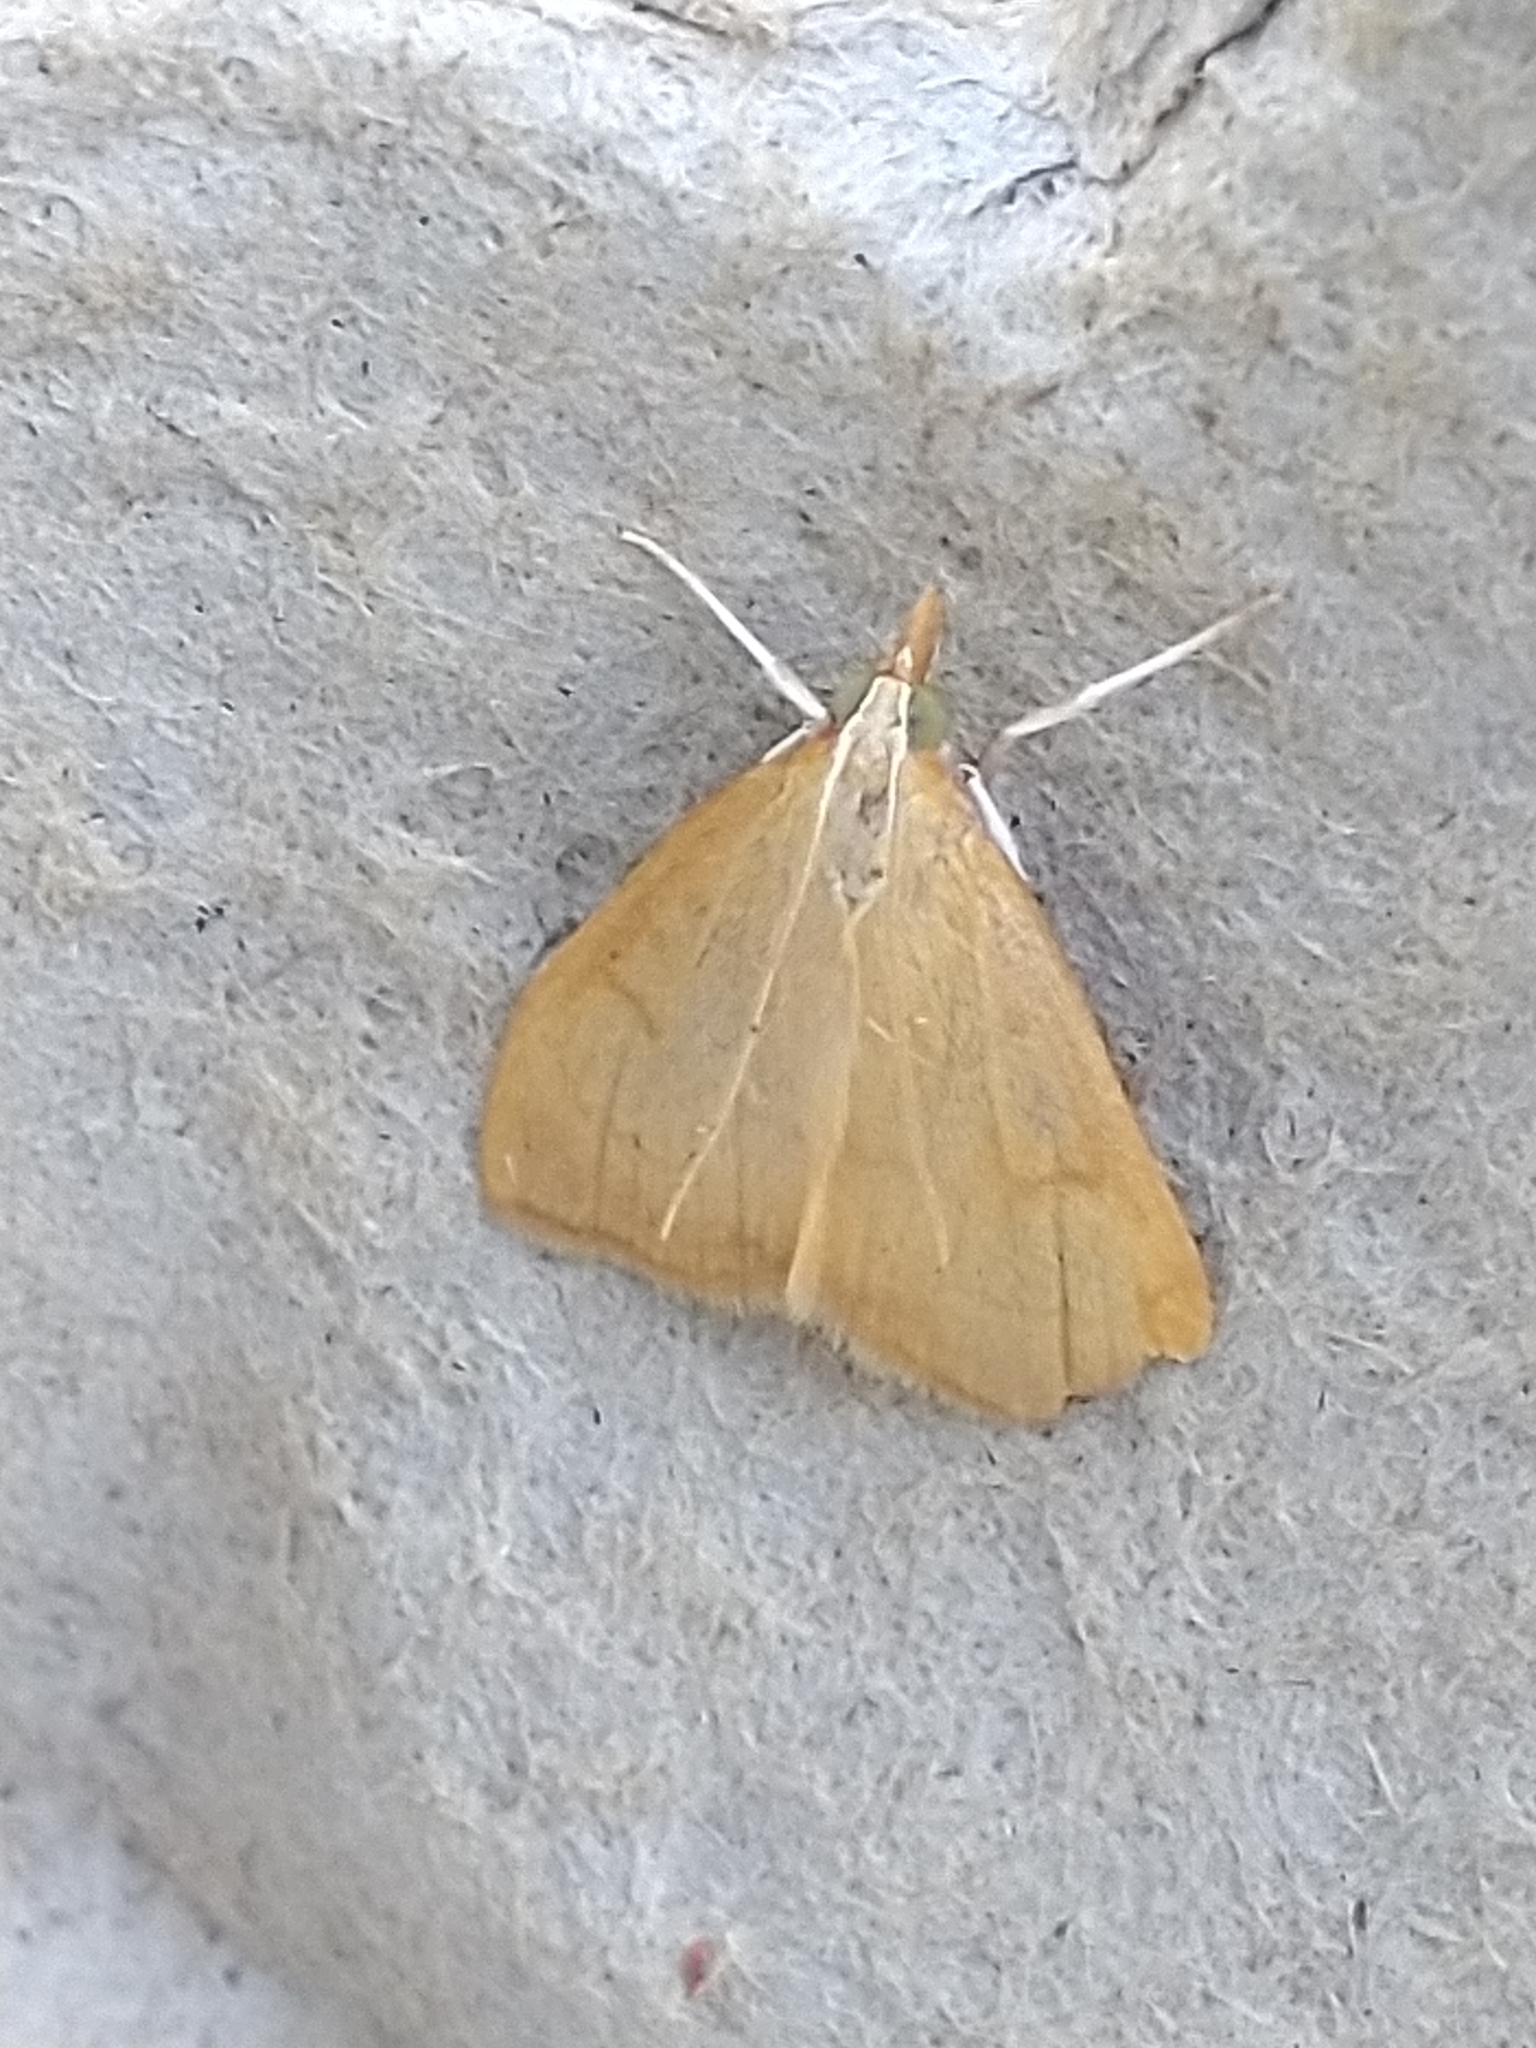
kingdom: Animalia
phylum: Arthropoda
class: Insecta
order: Lepidoptera
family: Crambidae
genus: Anania
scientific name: Anania crocealis
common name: Ochreous pearl
